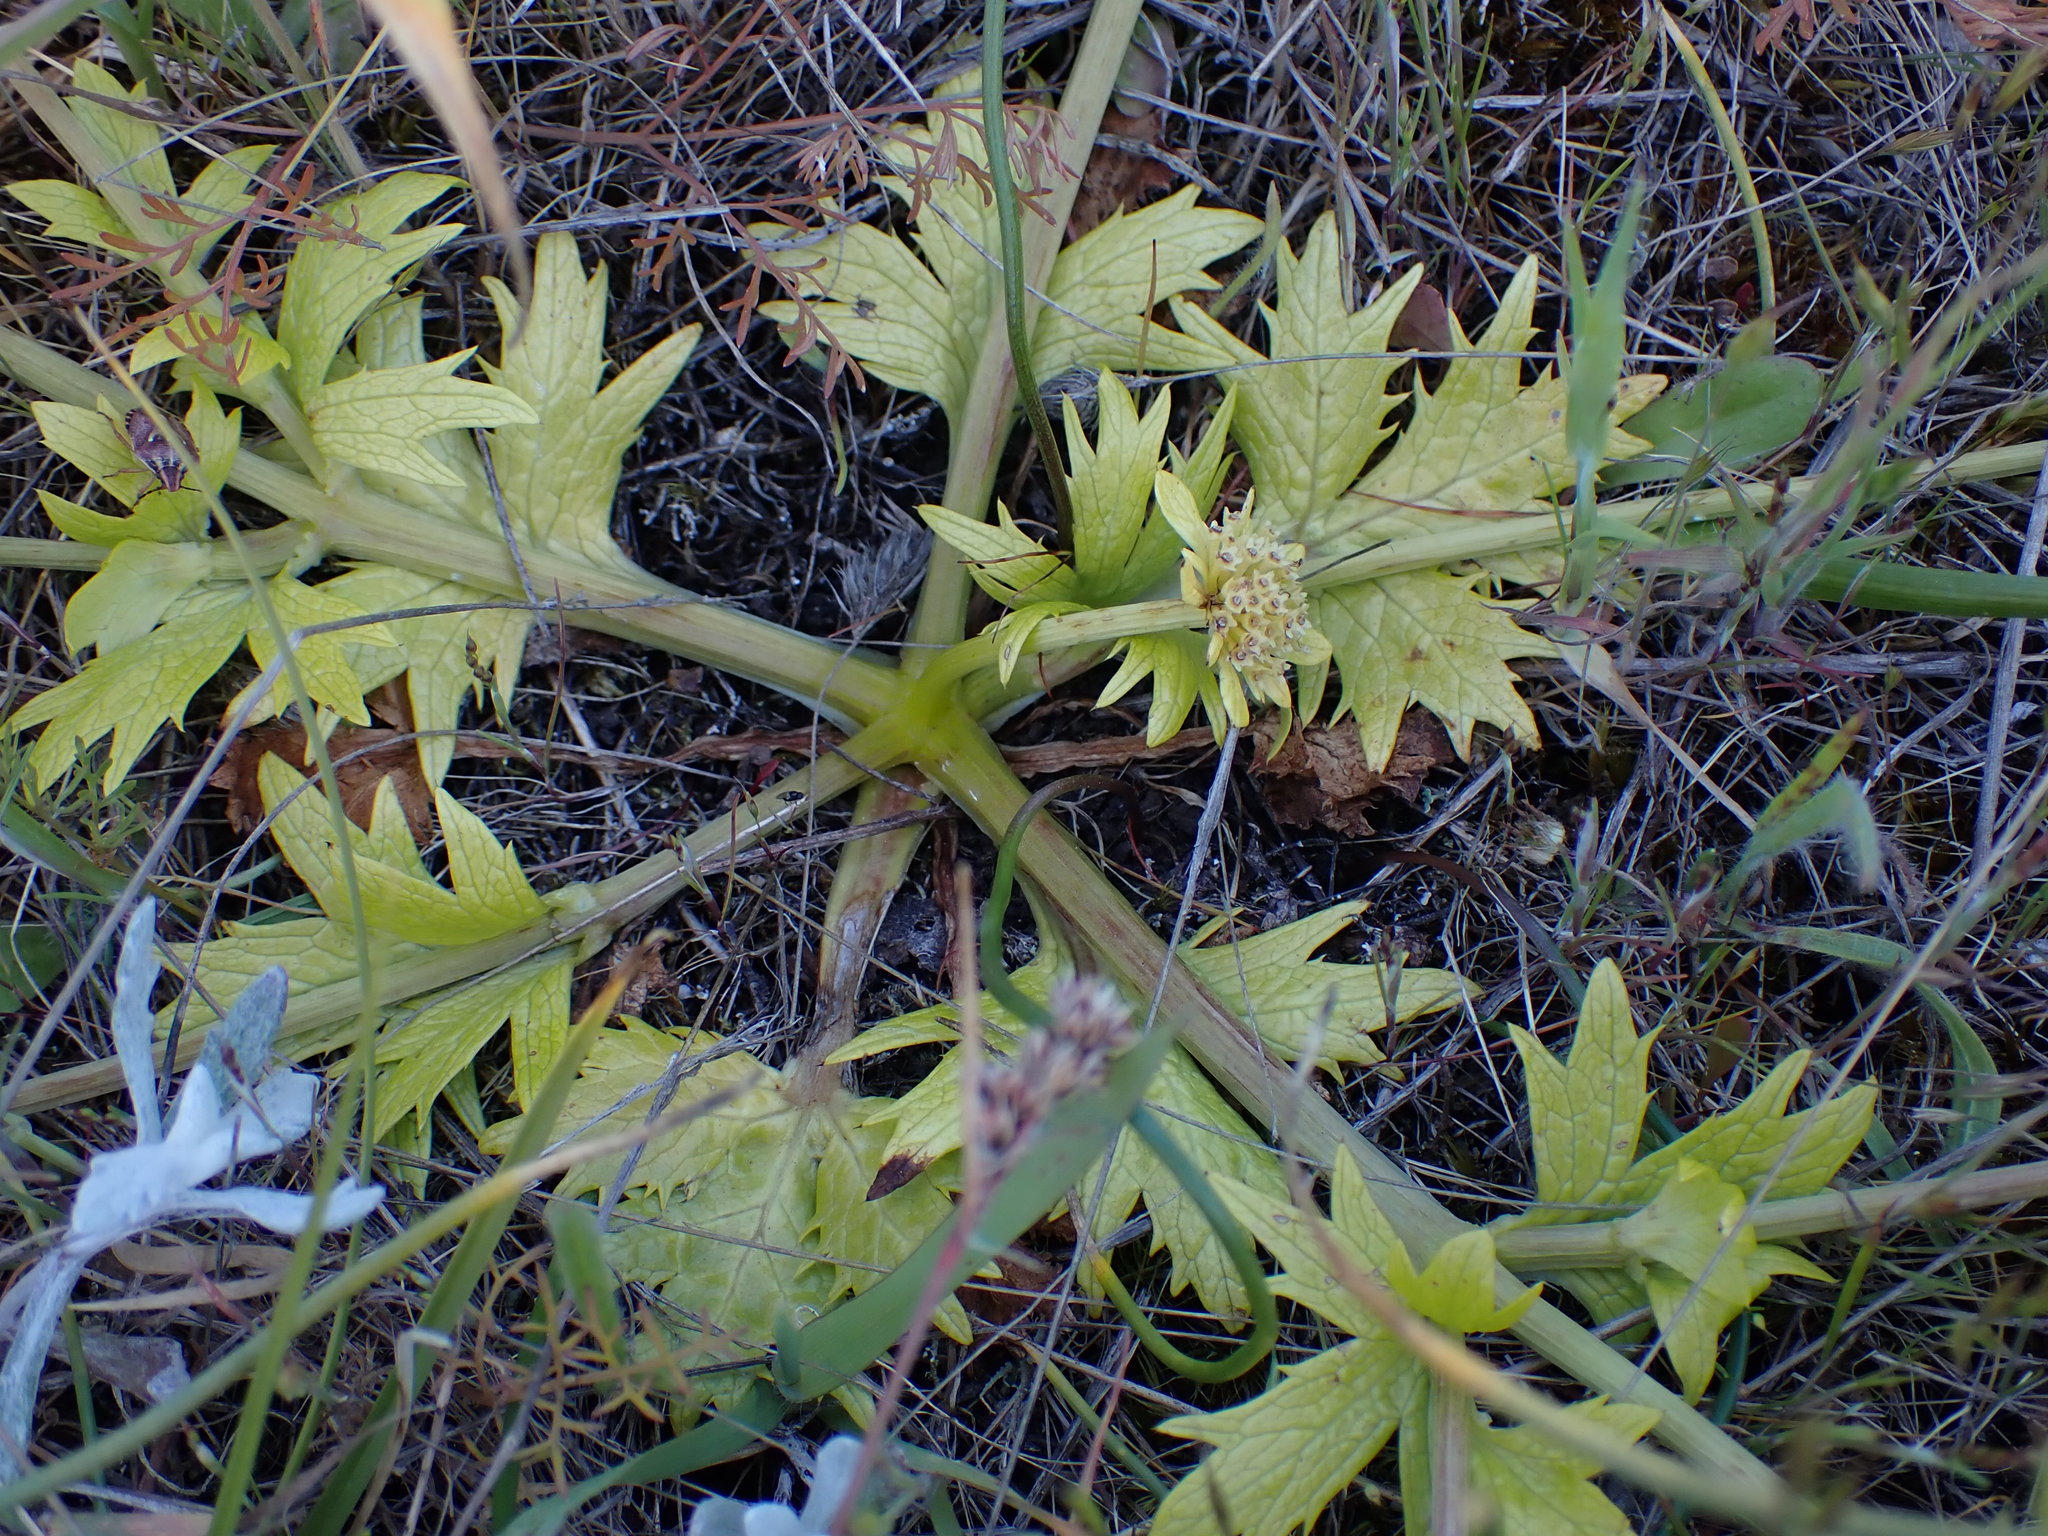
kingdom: Plantae
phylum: Tracheophyta
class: Magnoliopsida
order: Apiales
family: Apiaceae
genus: Sanicula
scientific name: Sanicula arctopoides
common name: Footsteps-of-spring
